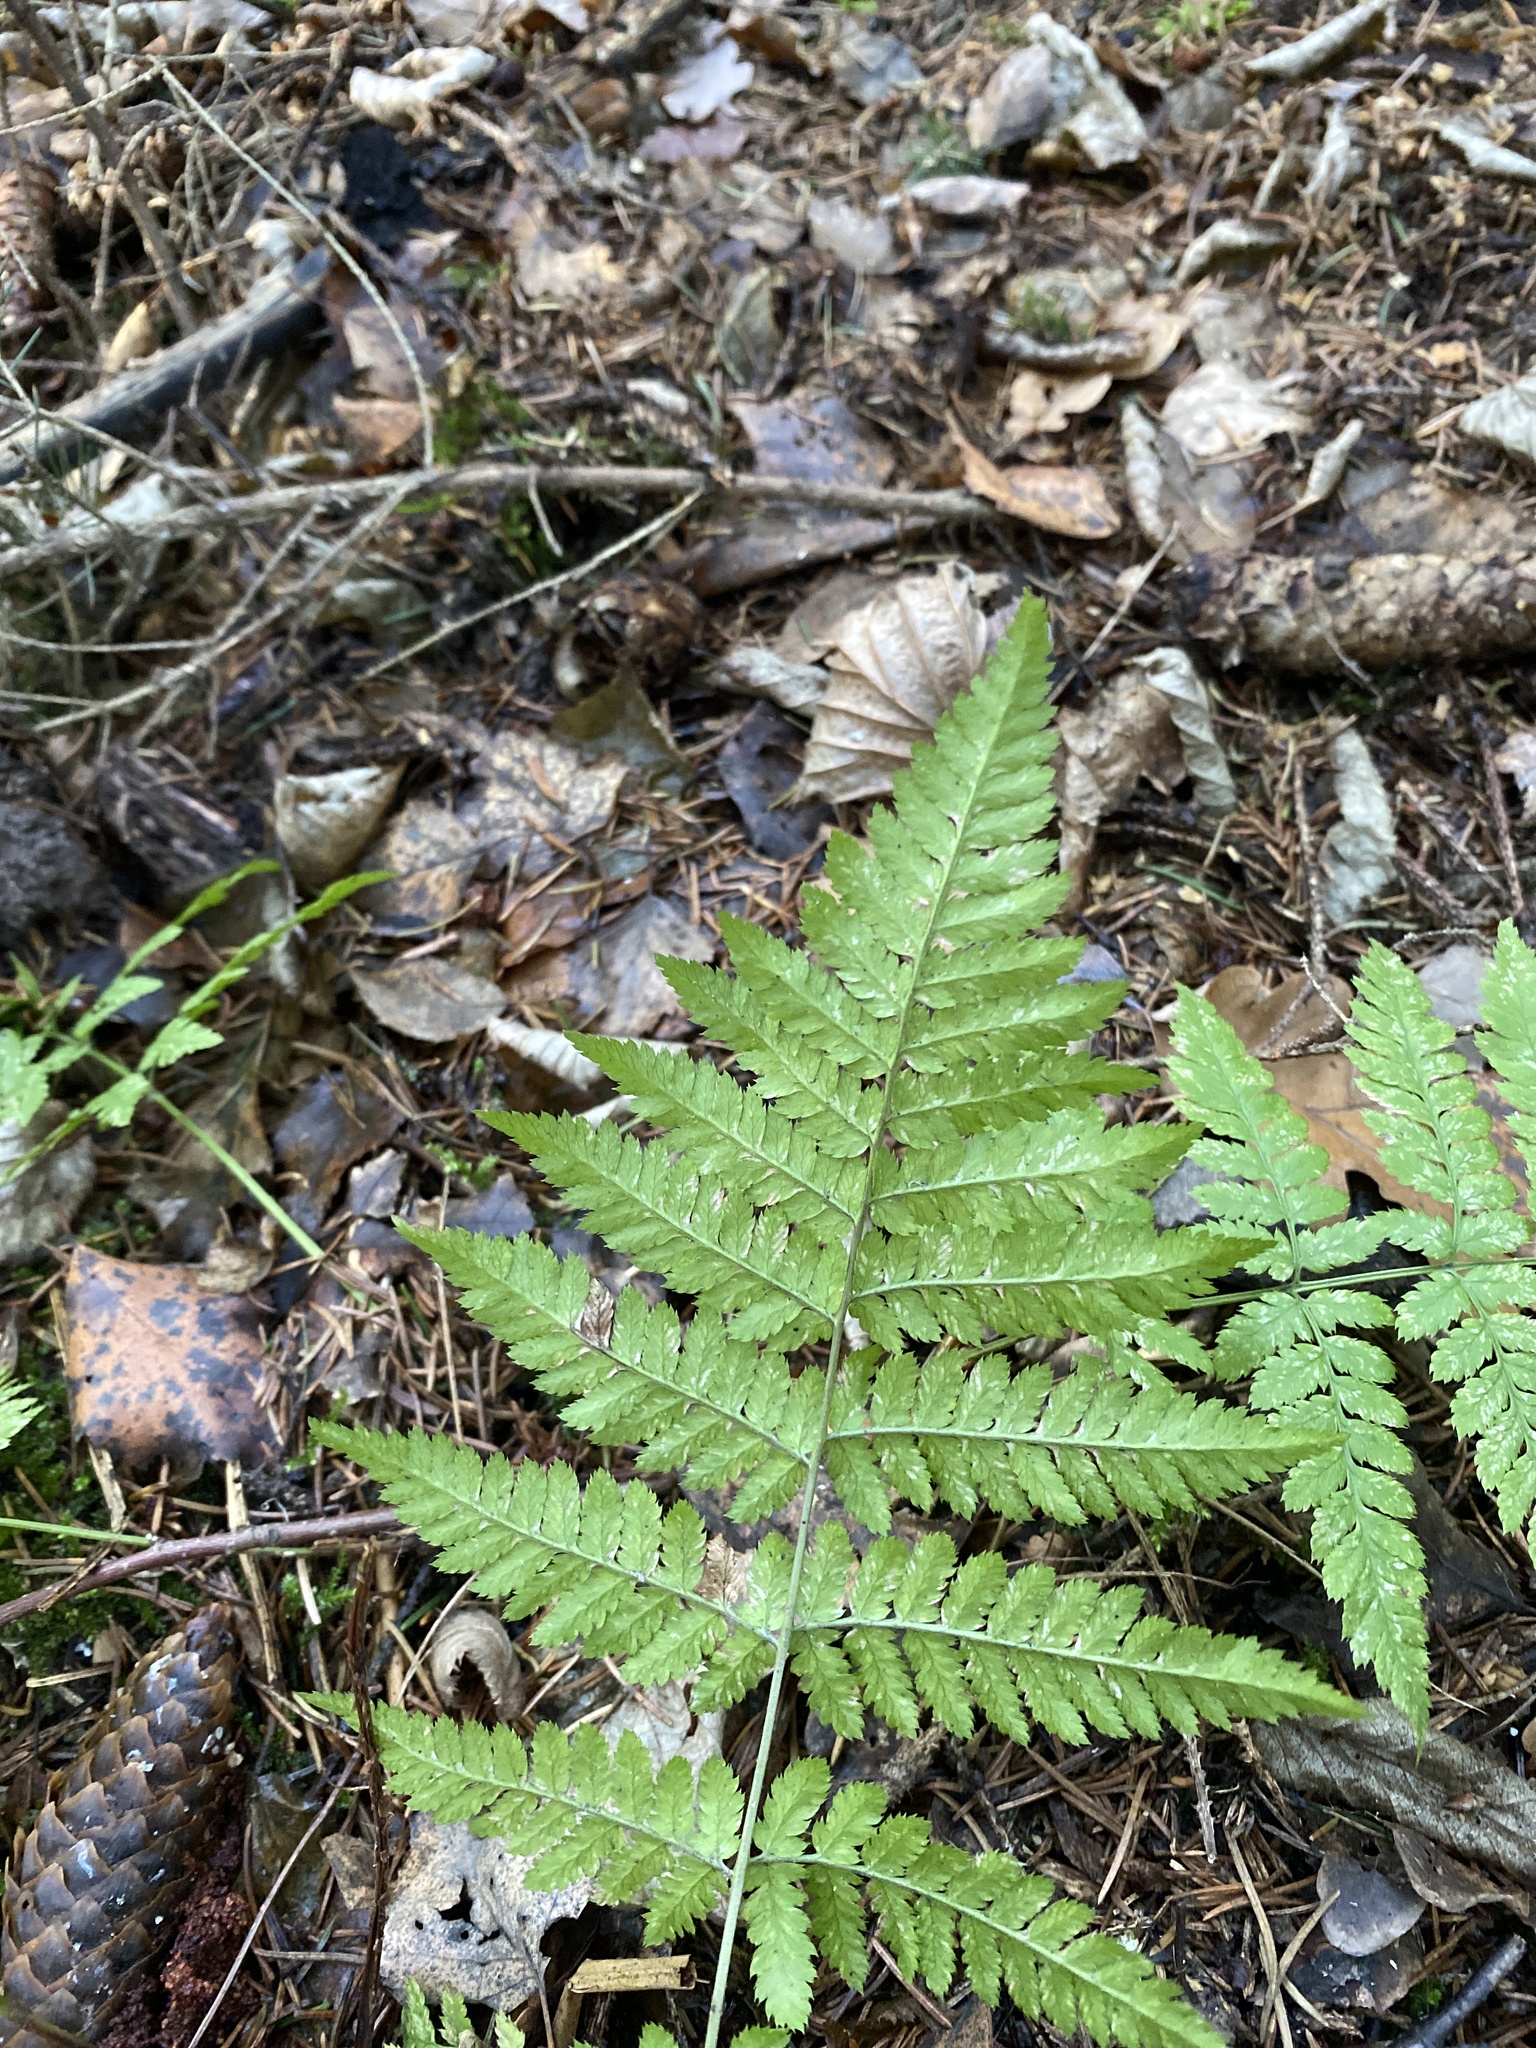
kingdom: Plantae
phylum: Tracheophyta
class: Polypodiopsida
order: Polypodiales
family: Dryopteridaceae
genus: Dryopteris
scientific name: Dryopteris carthusiana
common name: Narrow buckler-fern
